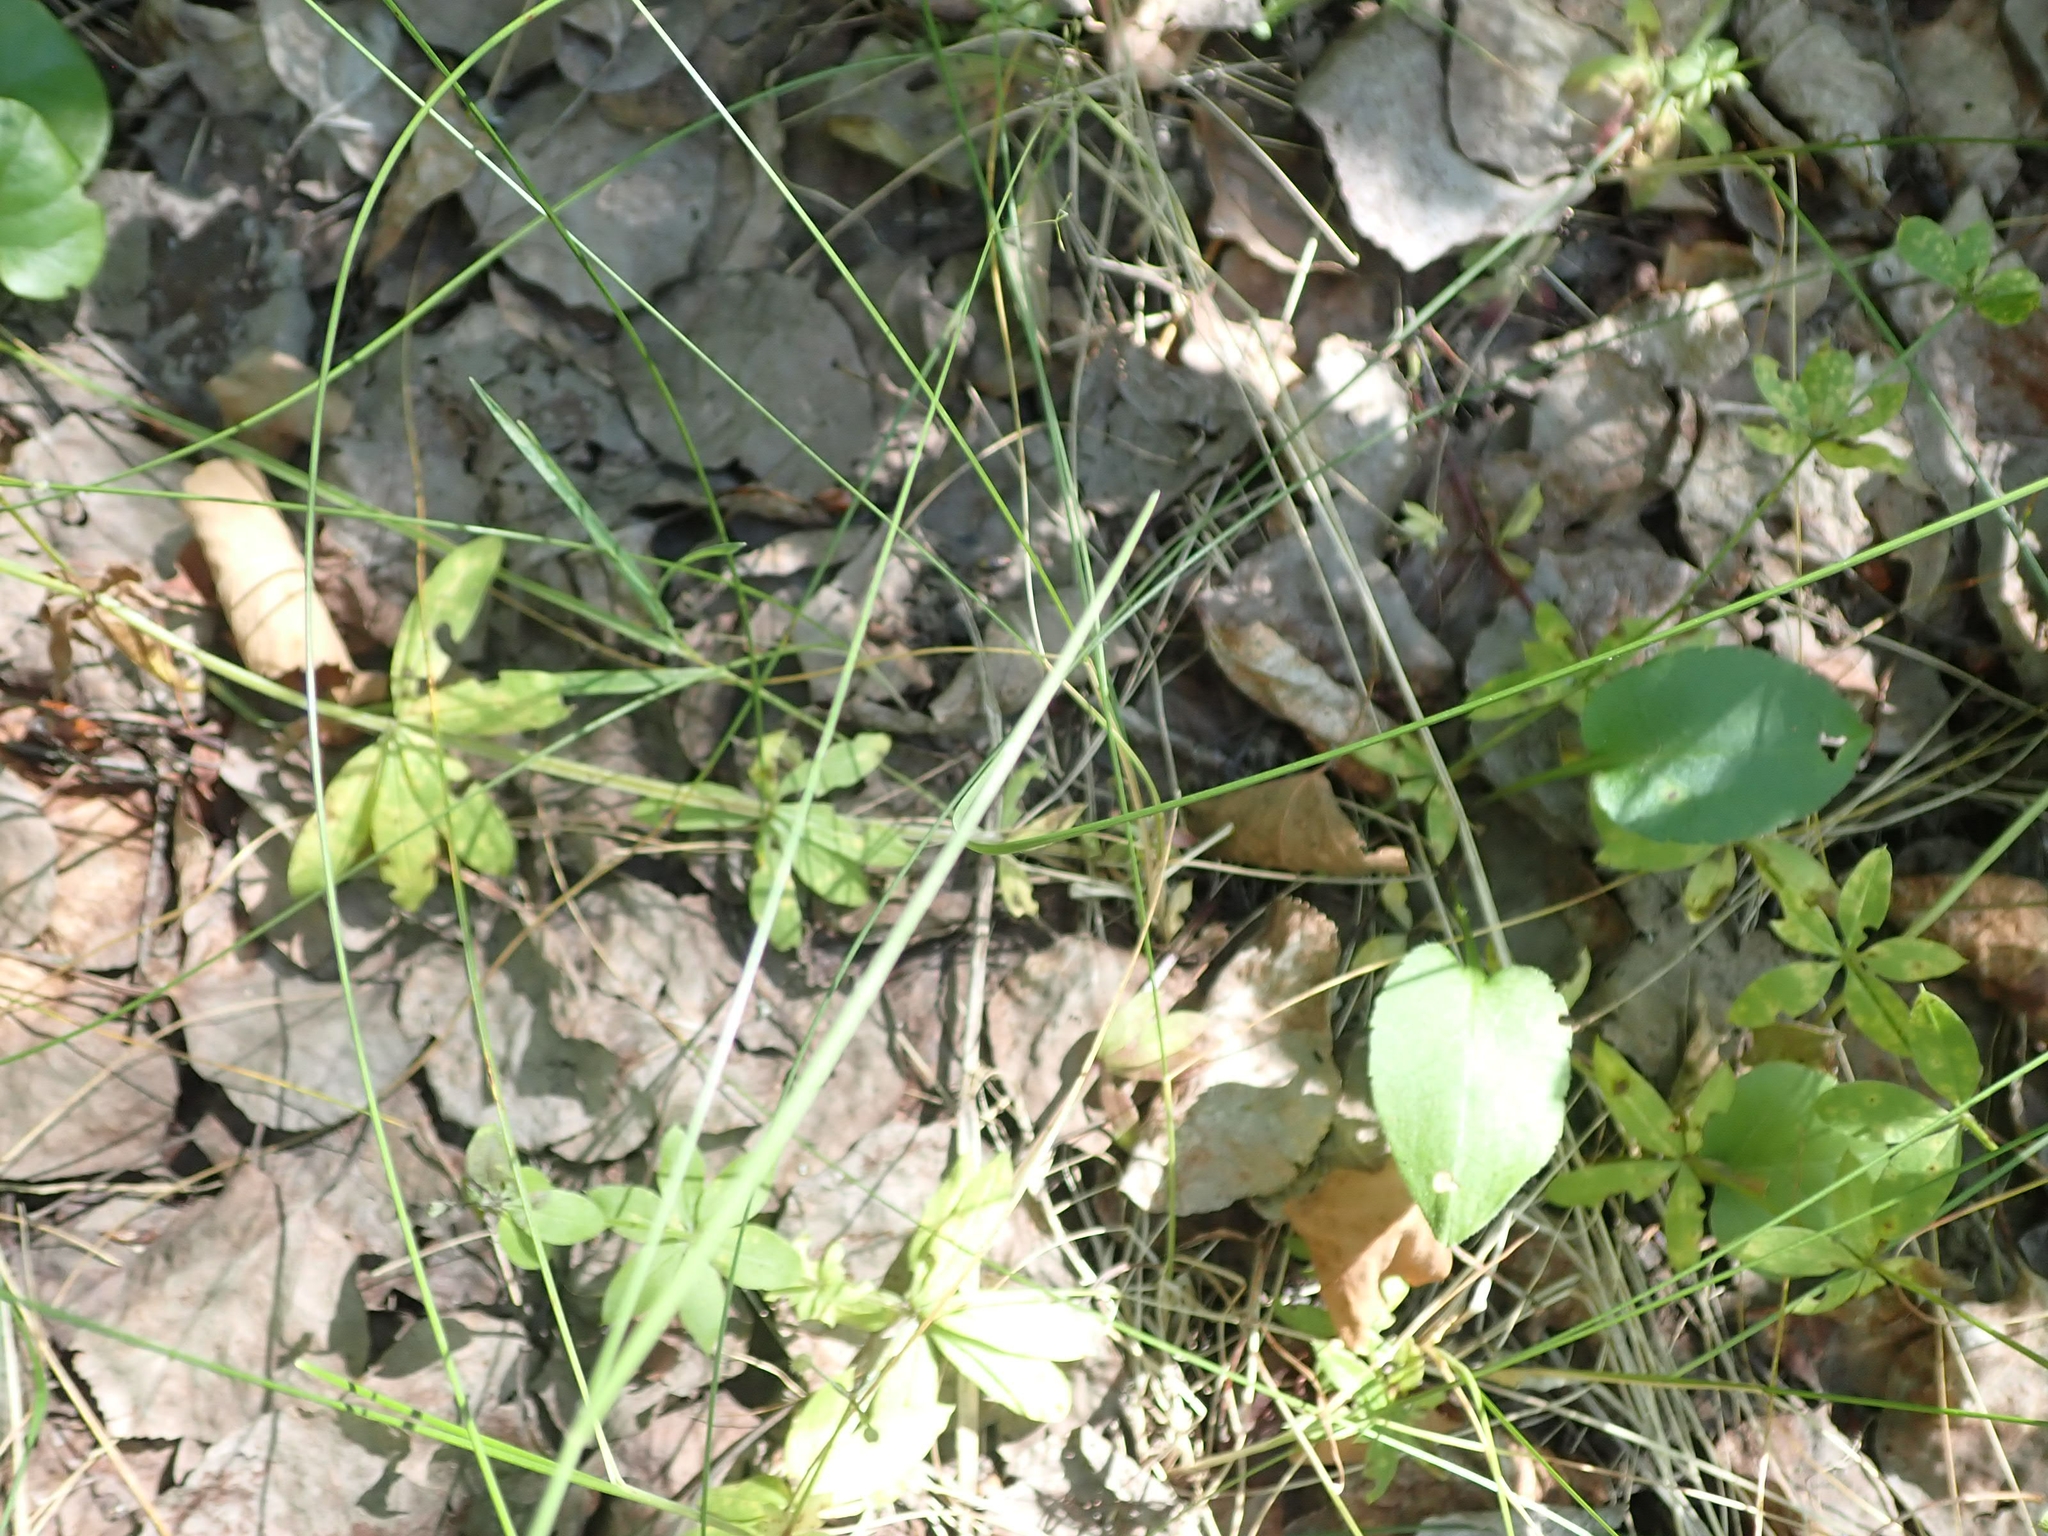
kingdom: Plantae
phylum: Tracheophyta
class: Magnoliopsida
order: Gentianales
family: Rubiaceae
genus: Galium
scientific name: Galium triflorum
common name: Fragrant bedstraw
